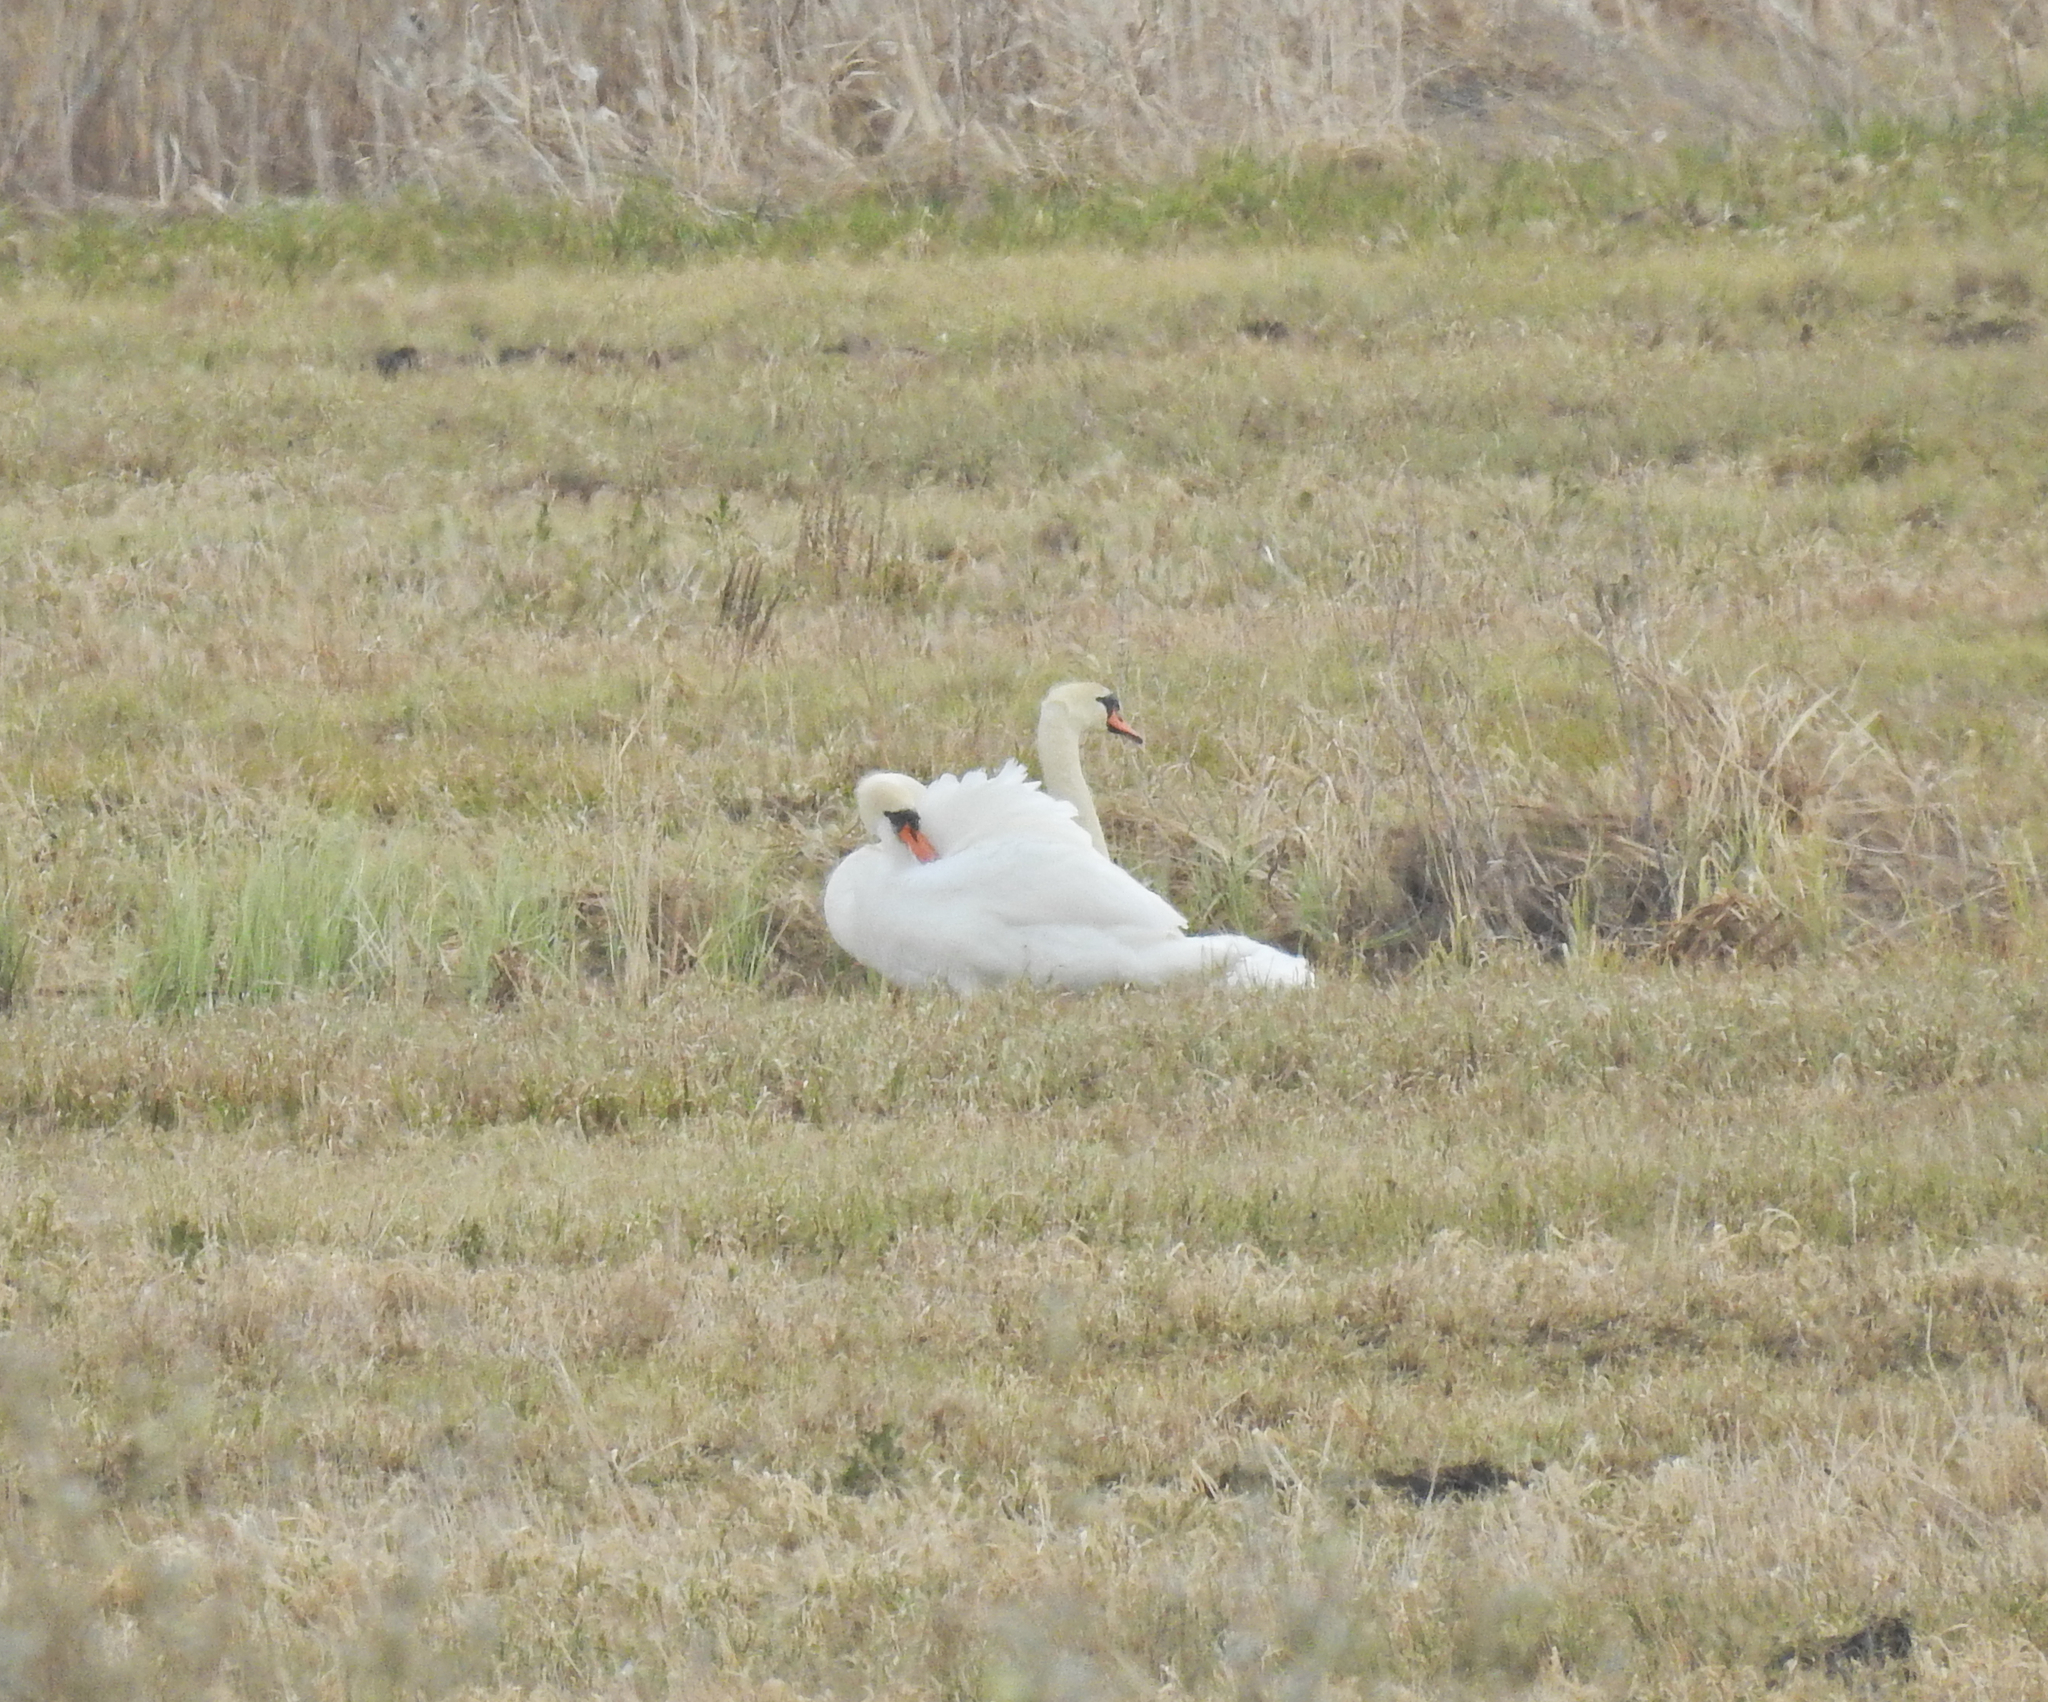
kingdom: Animalia
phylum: Chordata
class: Aves
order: Anseriformes
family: Anatidae
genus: Cygnus
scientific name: Cygnus olor
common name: Mute swan
